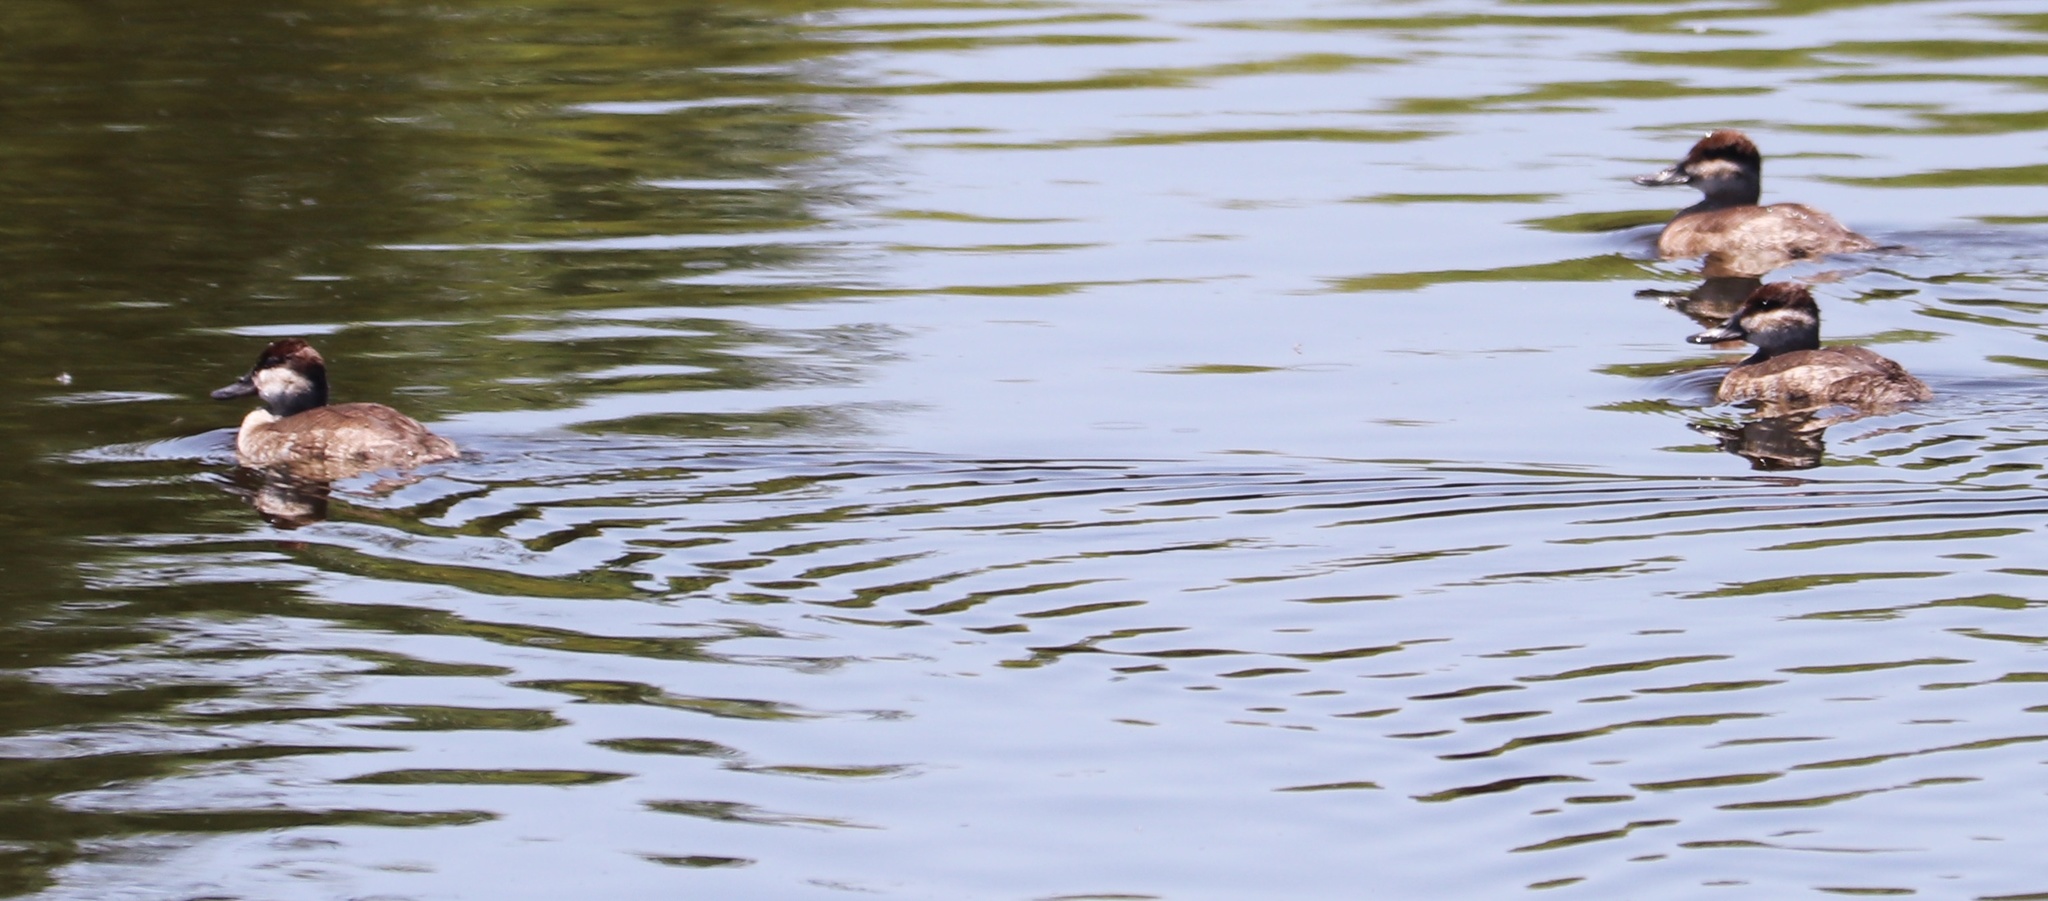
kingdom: Animalia
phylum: Chordata
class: Aves
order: Anseriformes
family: Anatidae
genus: Oxyura
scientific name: Oxyura jamaicensis
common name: Ruddy duck
